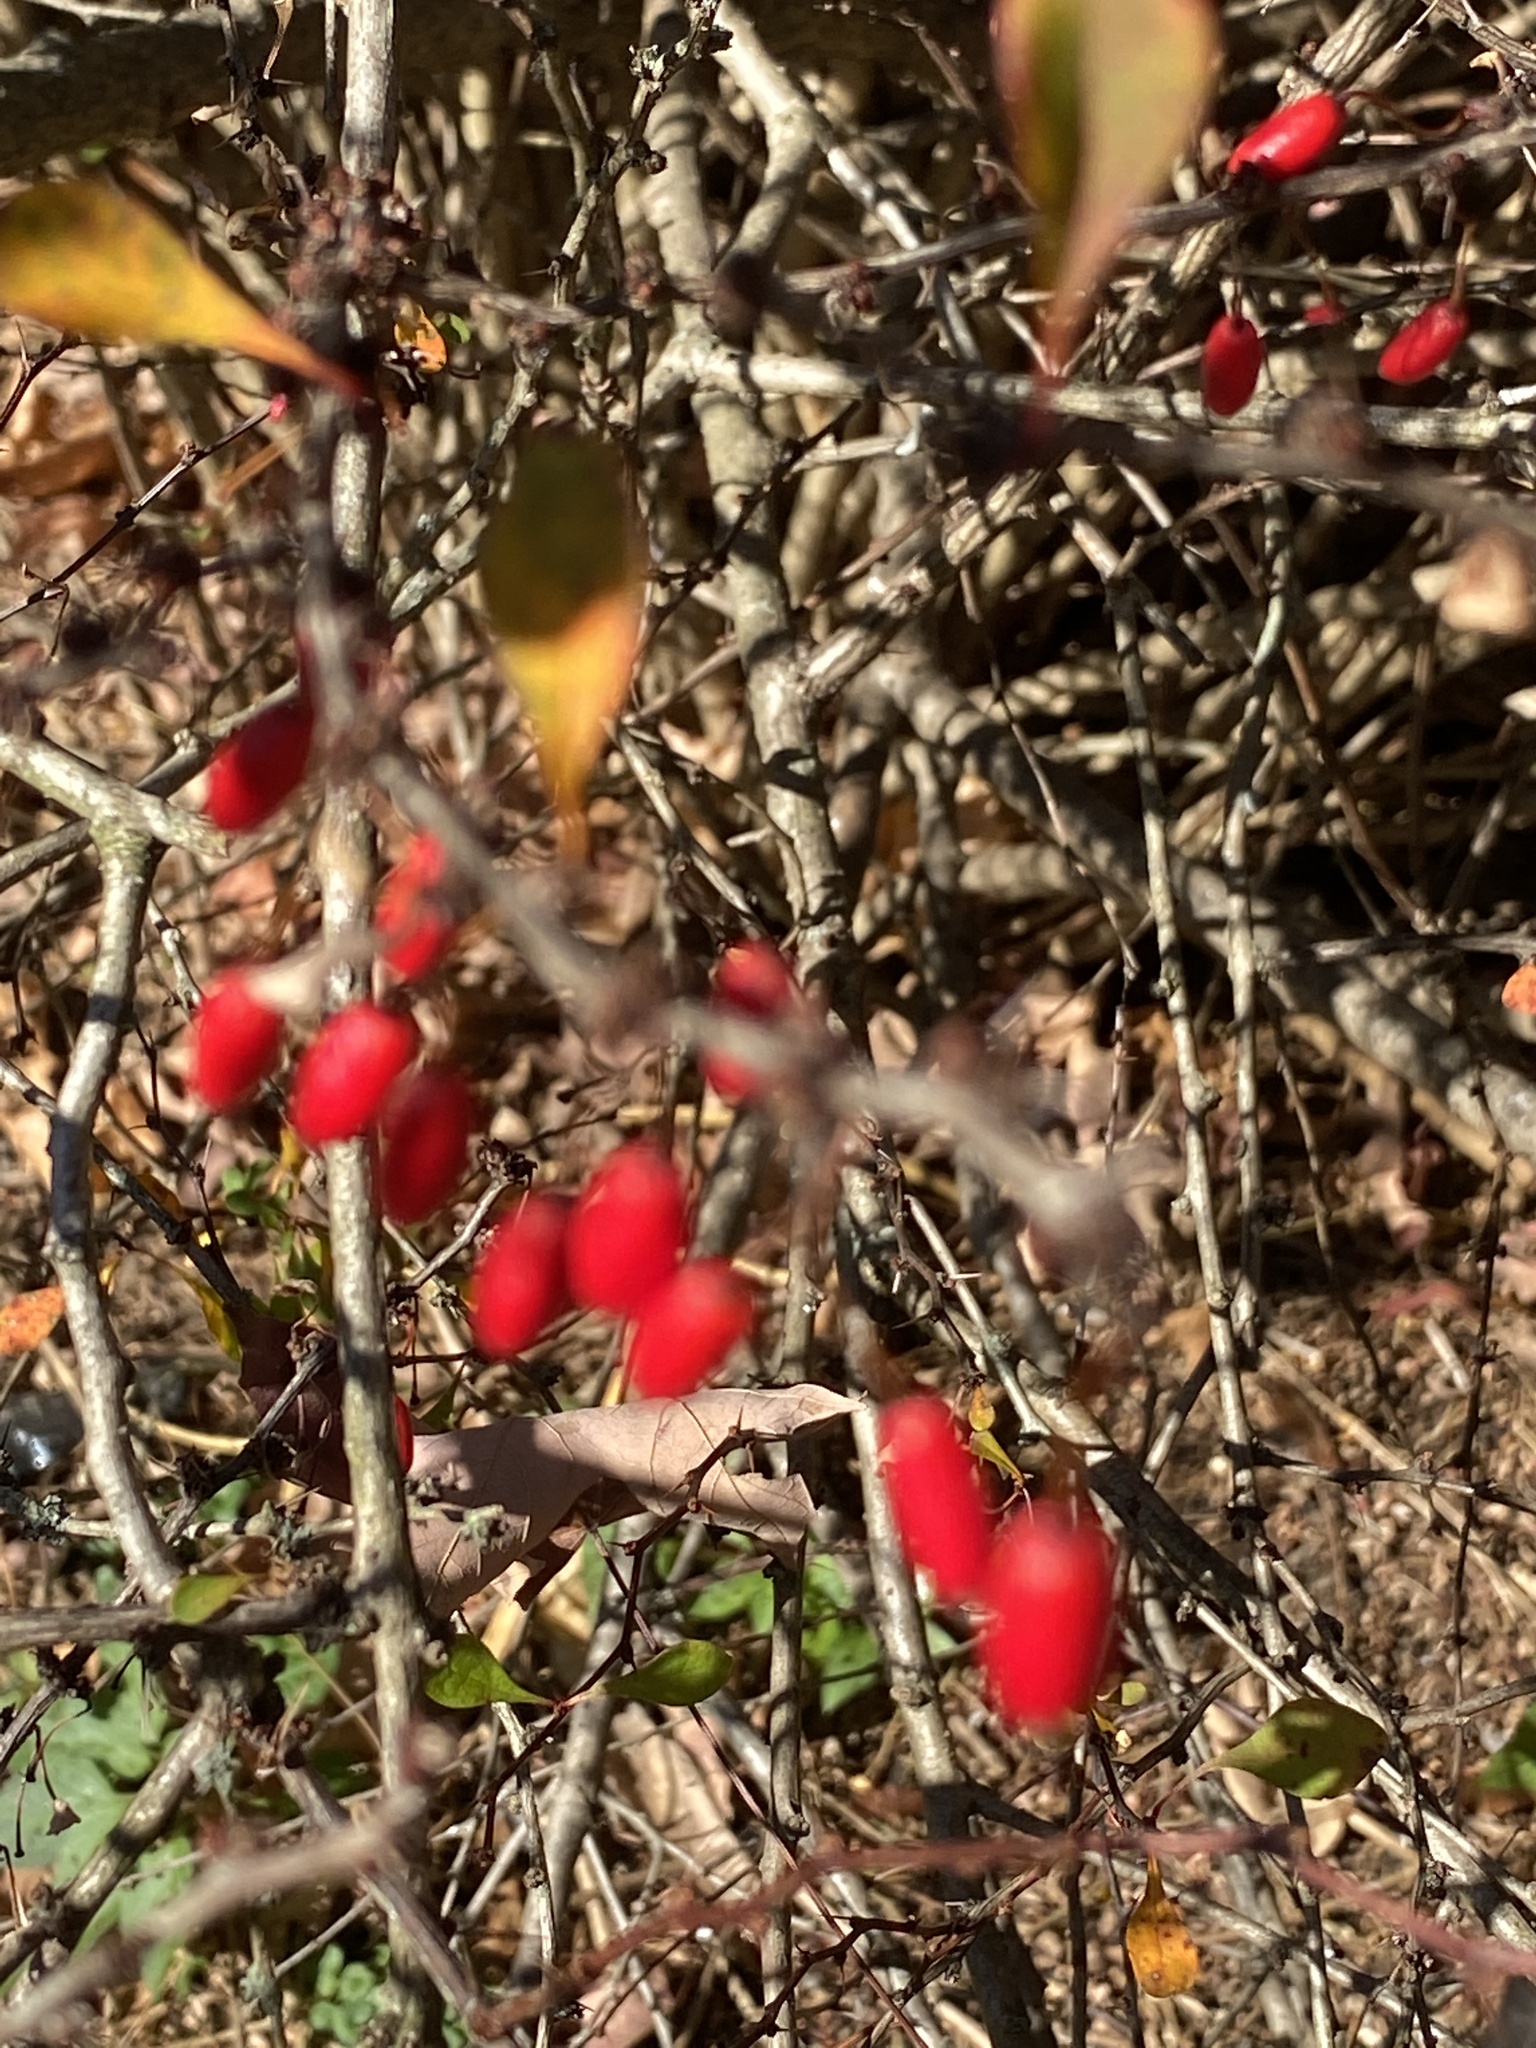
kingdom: Plantae
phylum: Tracheophyta
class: Magnoliopsida
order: Ranunculales
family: Berberidaceae
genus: Berberis
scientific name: Berberis thunbergii
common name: Japanese barberry
